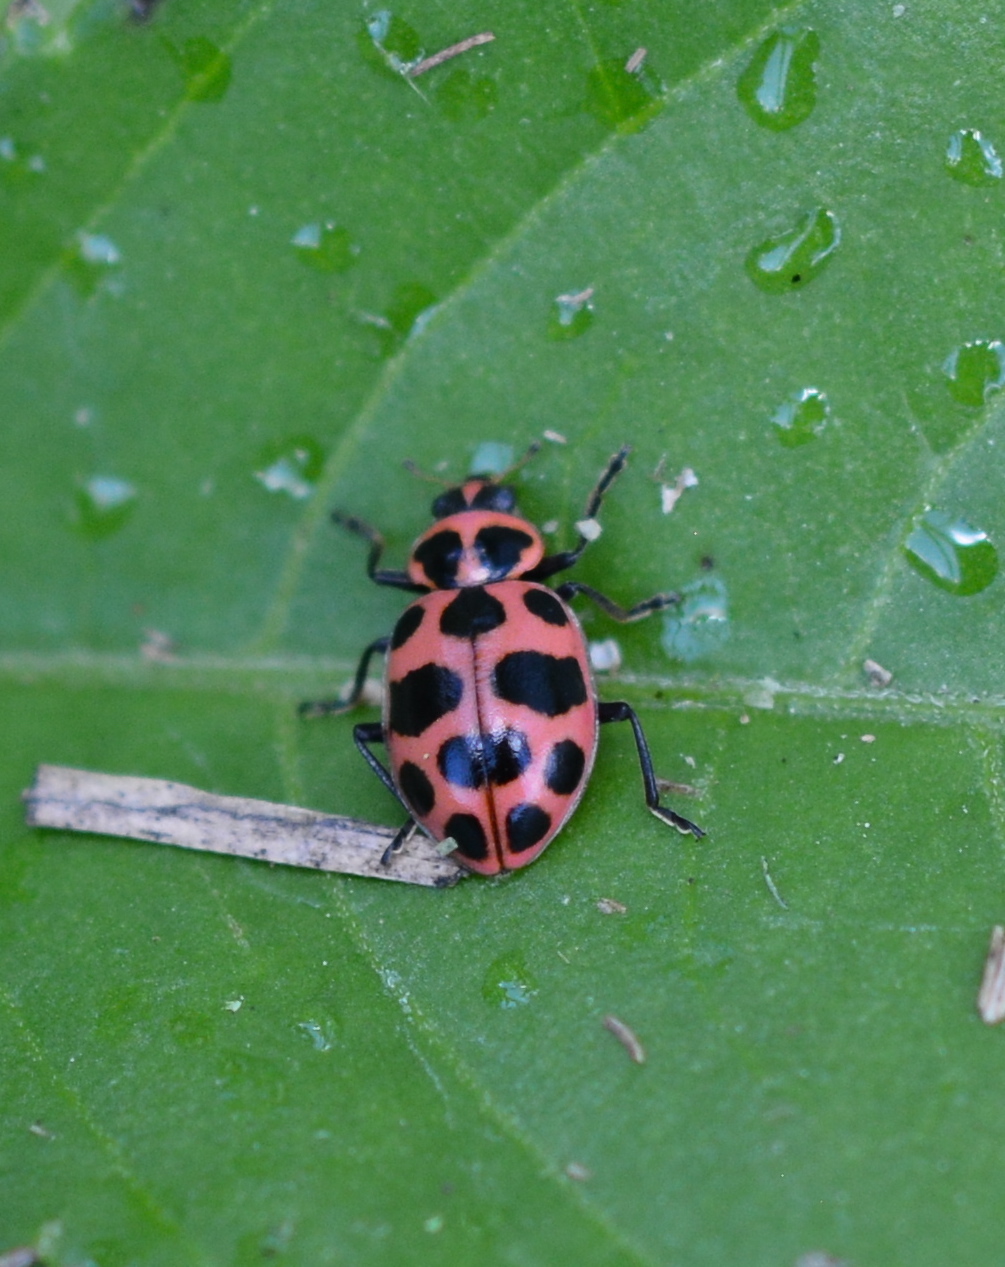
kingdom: Animalia
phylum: Arthropoda
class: Insecta
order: Coleoptera
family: Coccinellidae
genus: Coleomegilla
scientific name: Coleomegilla maculata
